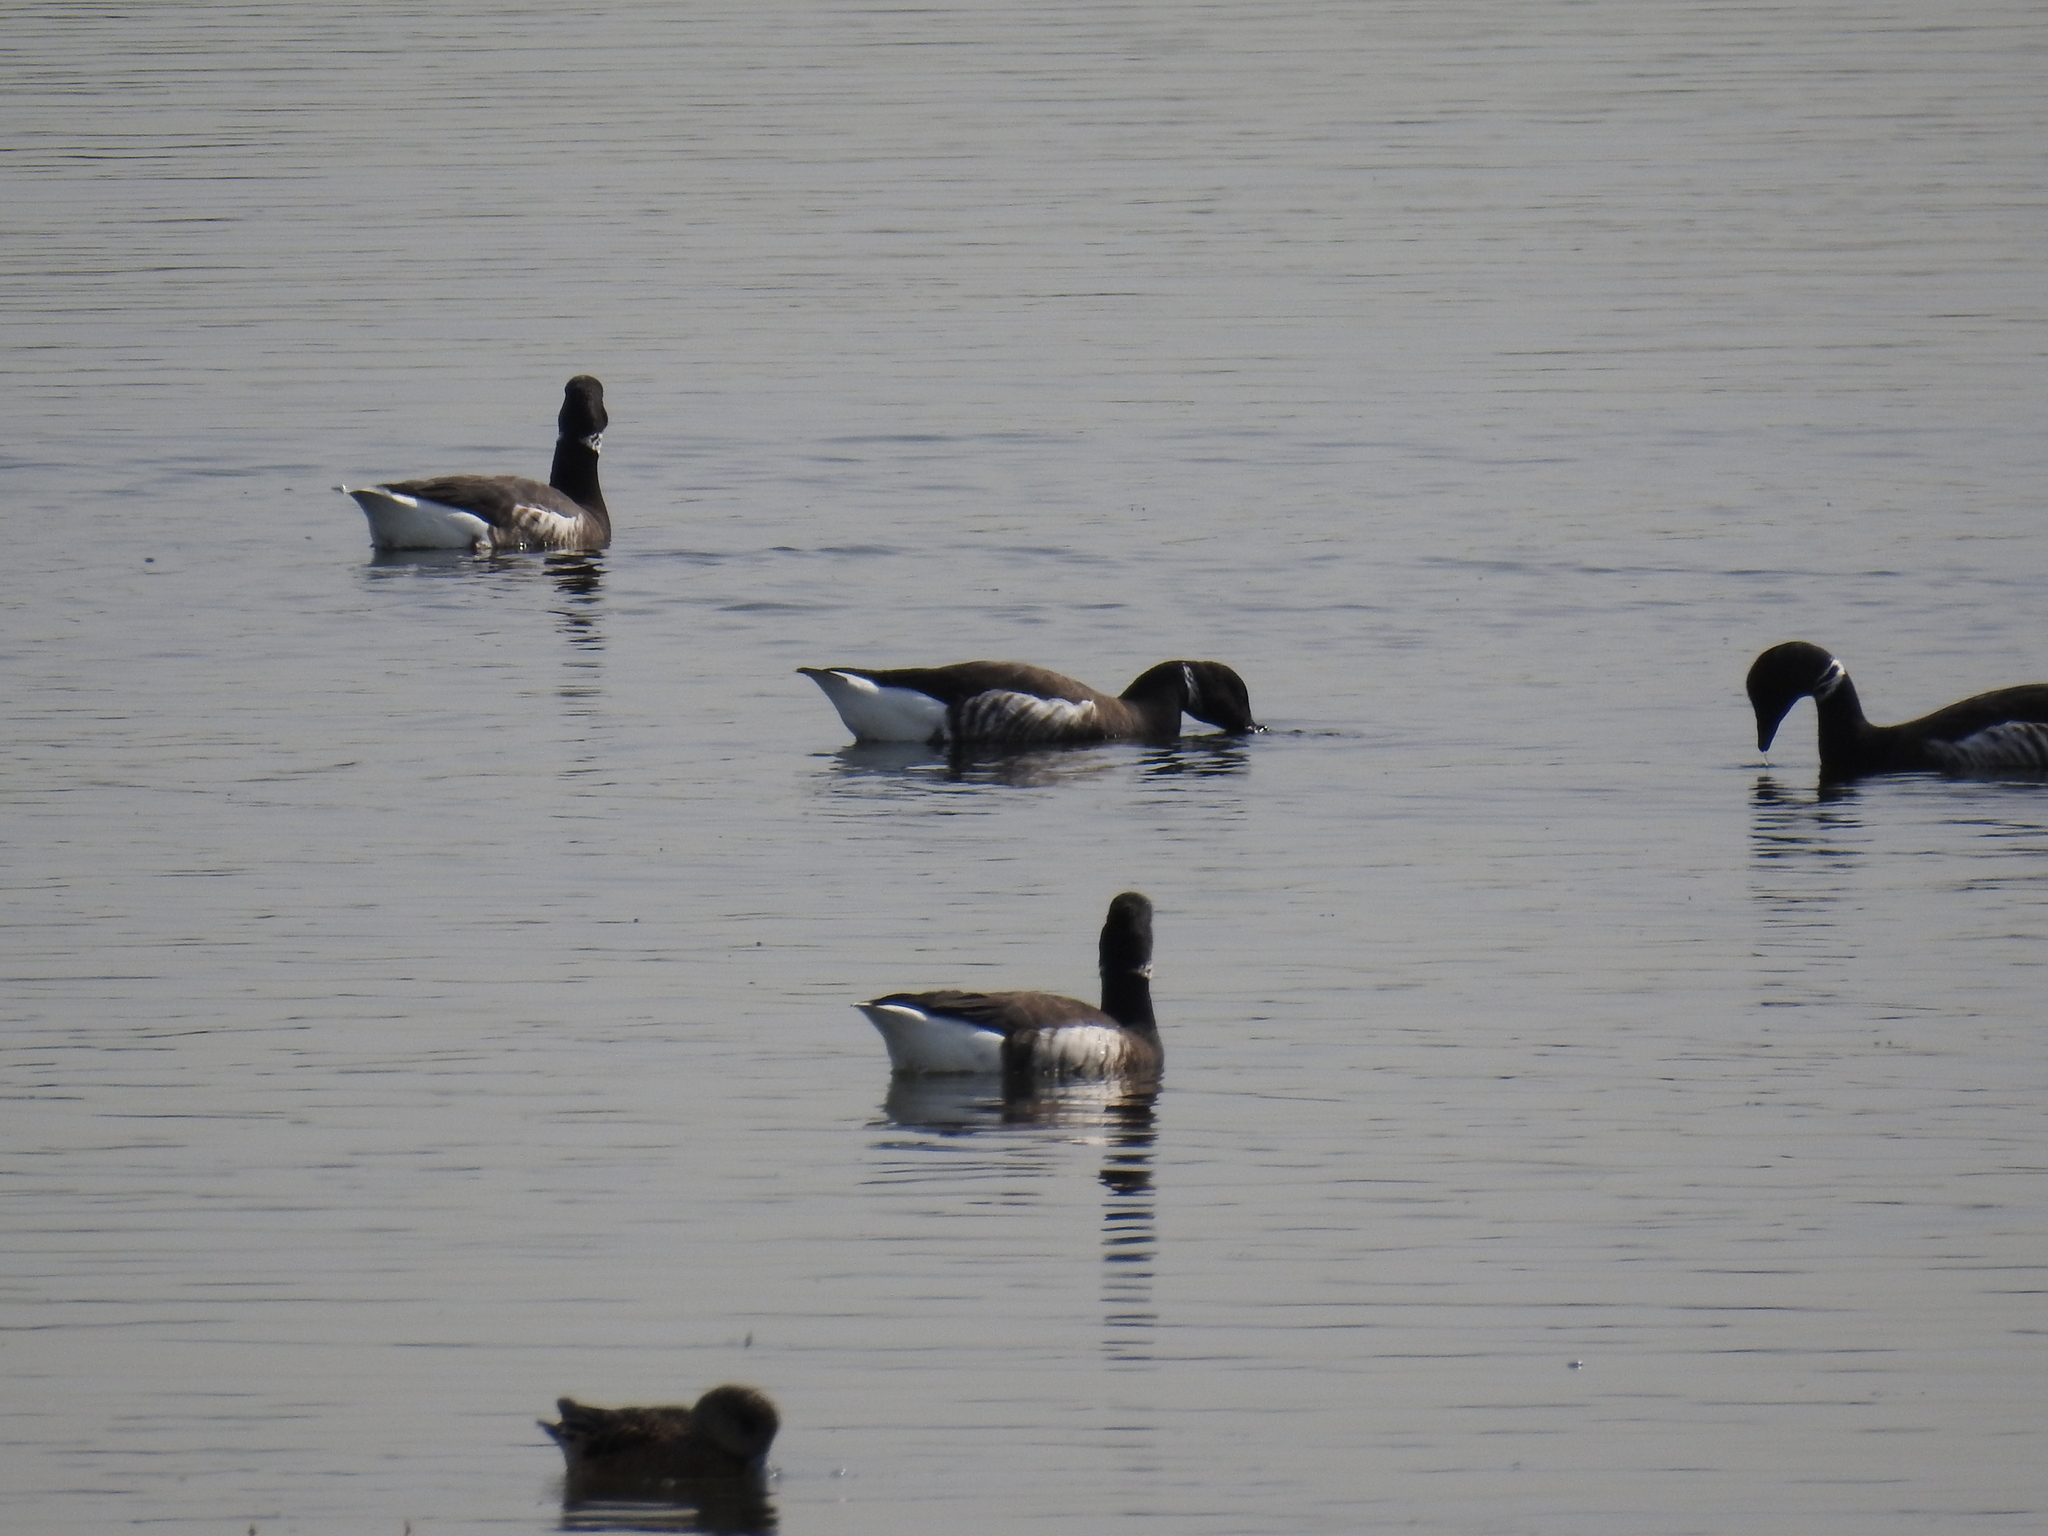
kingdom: Animalia
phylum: Chordata
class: Aves
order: Anseriformes
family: Anatidae
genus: Branta
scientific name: Branta bernicla
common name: Brant goose
